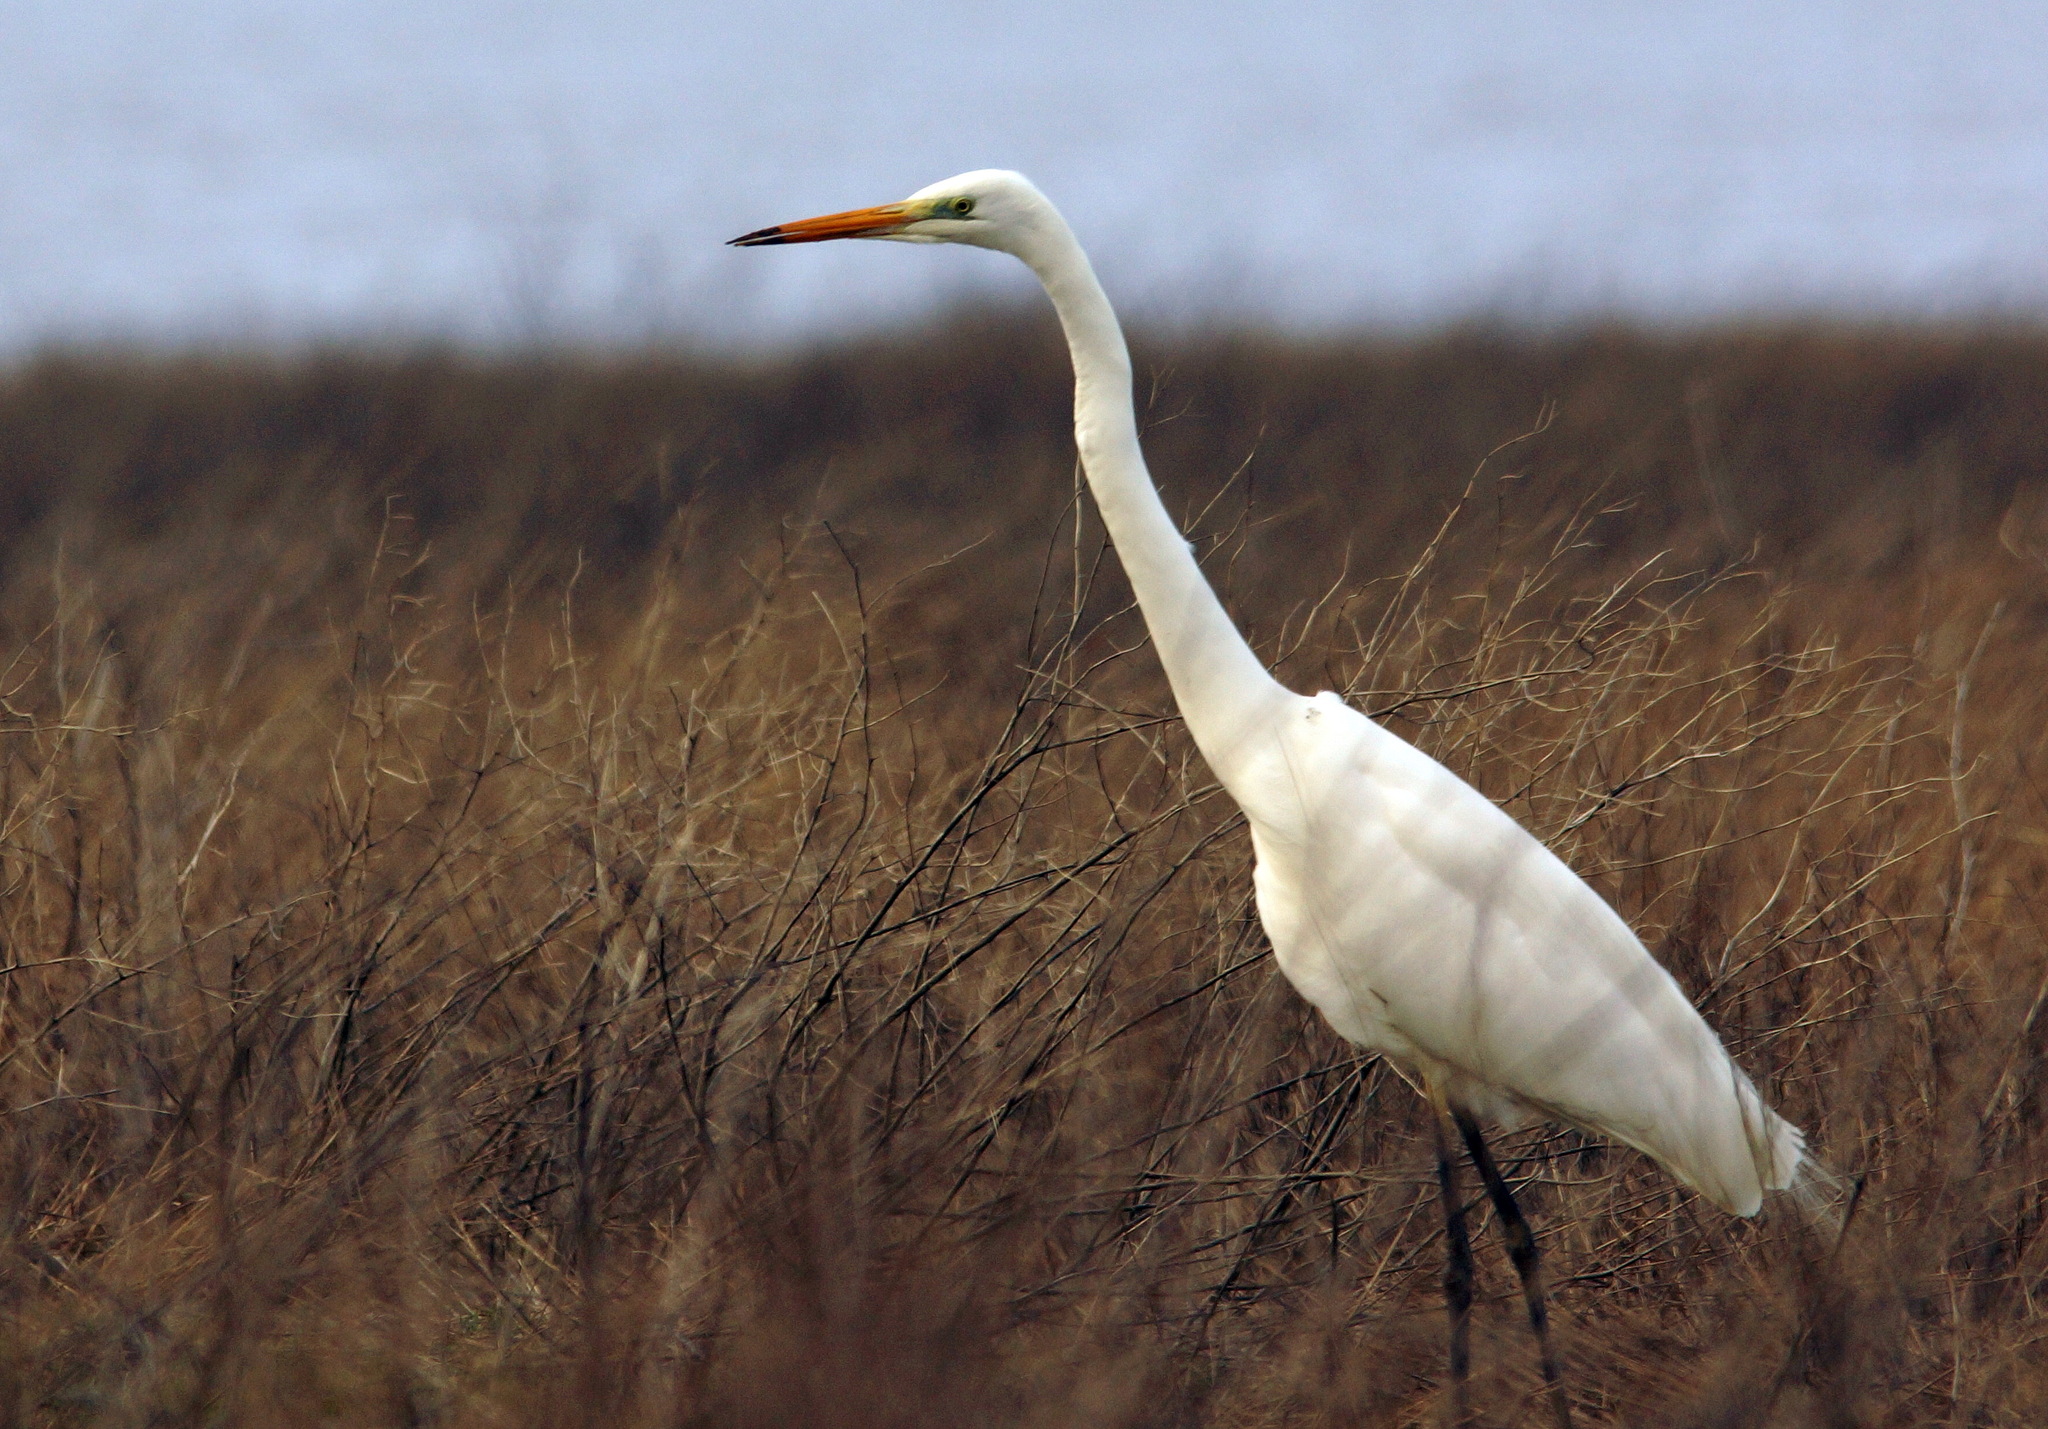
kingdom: Animalia
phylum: Chordata
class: Aves
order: Pelecaniformes
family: Ardeidae
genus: Ardea
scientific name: Ardea alba
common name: Great egret
